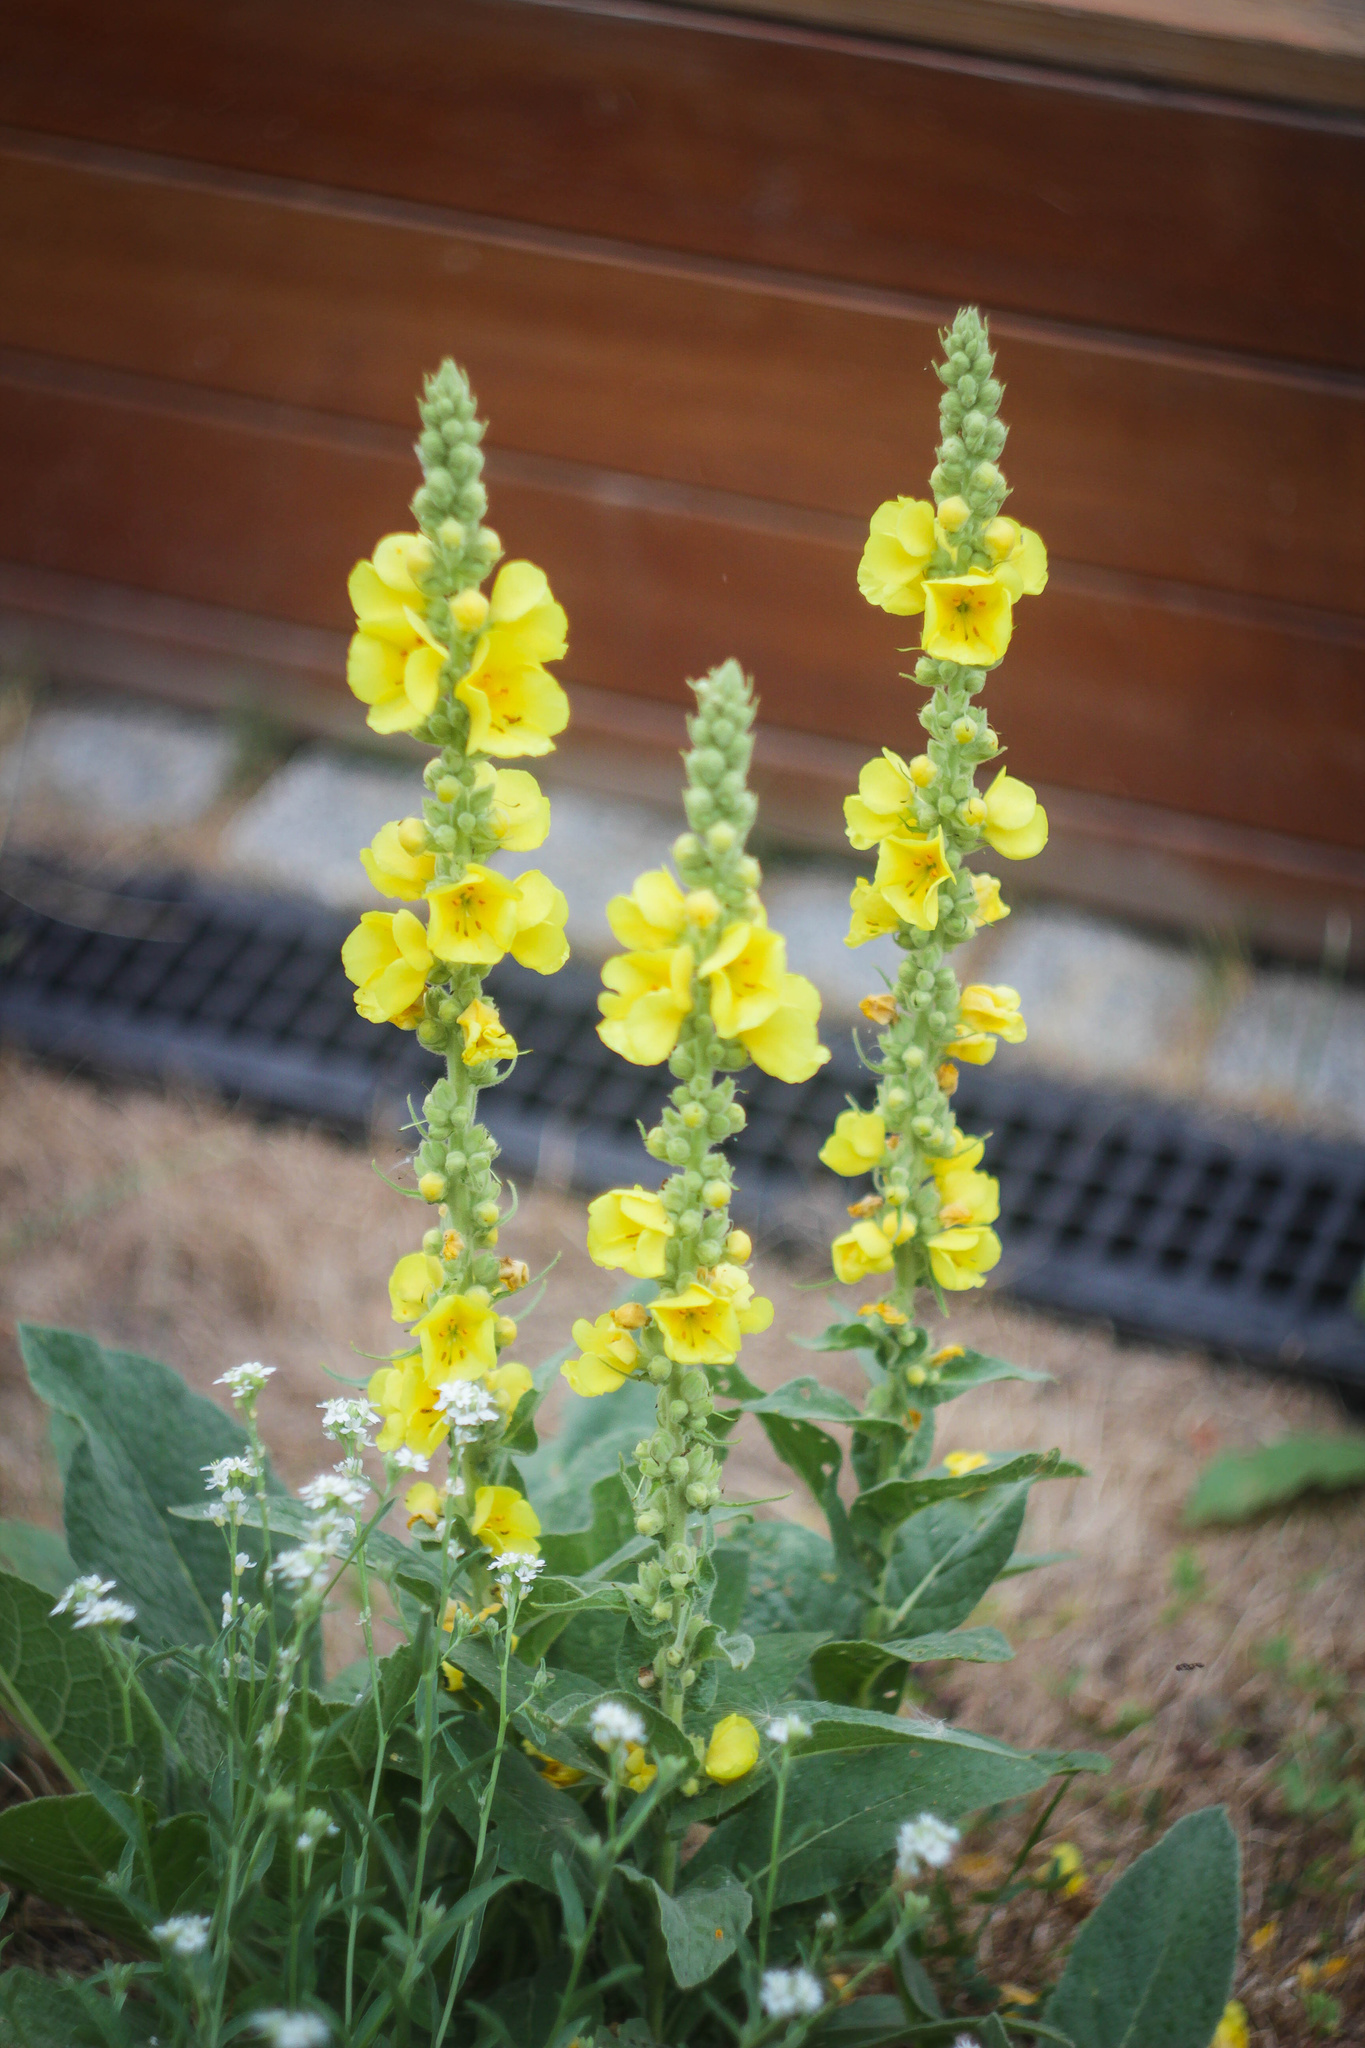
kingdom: Plantae
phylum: Tracheophyta
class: Magnoliopsida
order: Lamiales
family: Scrophulariaceae
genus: Verbascum
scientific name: Verbascum phlomoides
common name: Orange mullein
